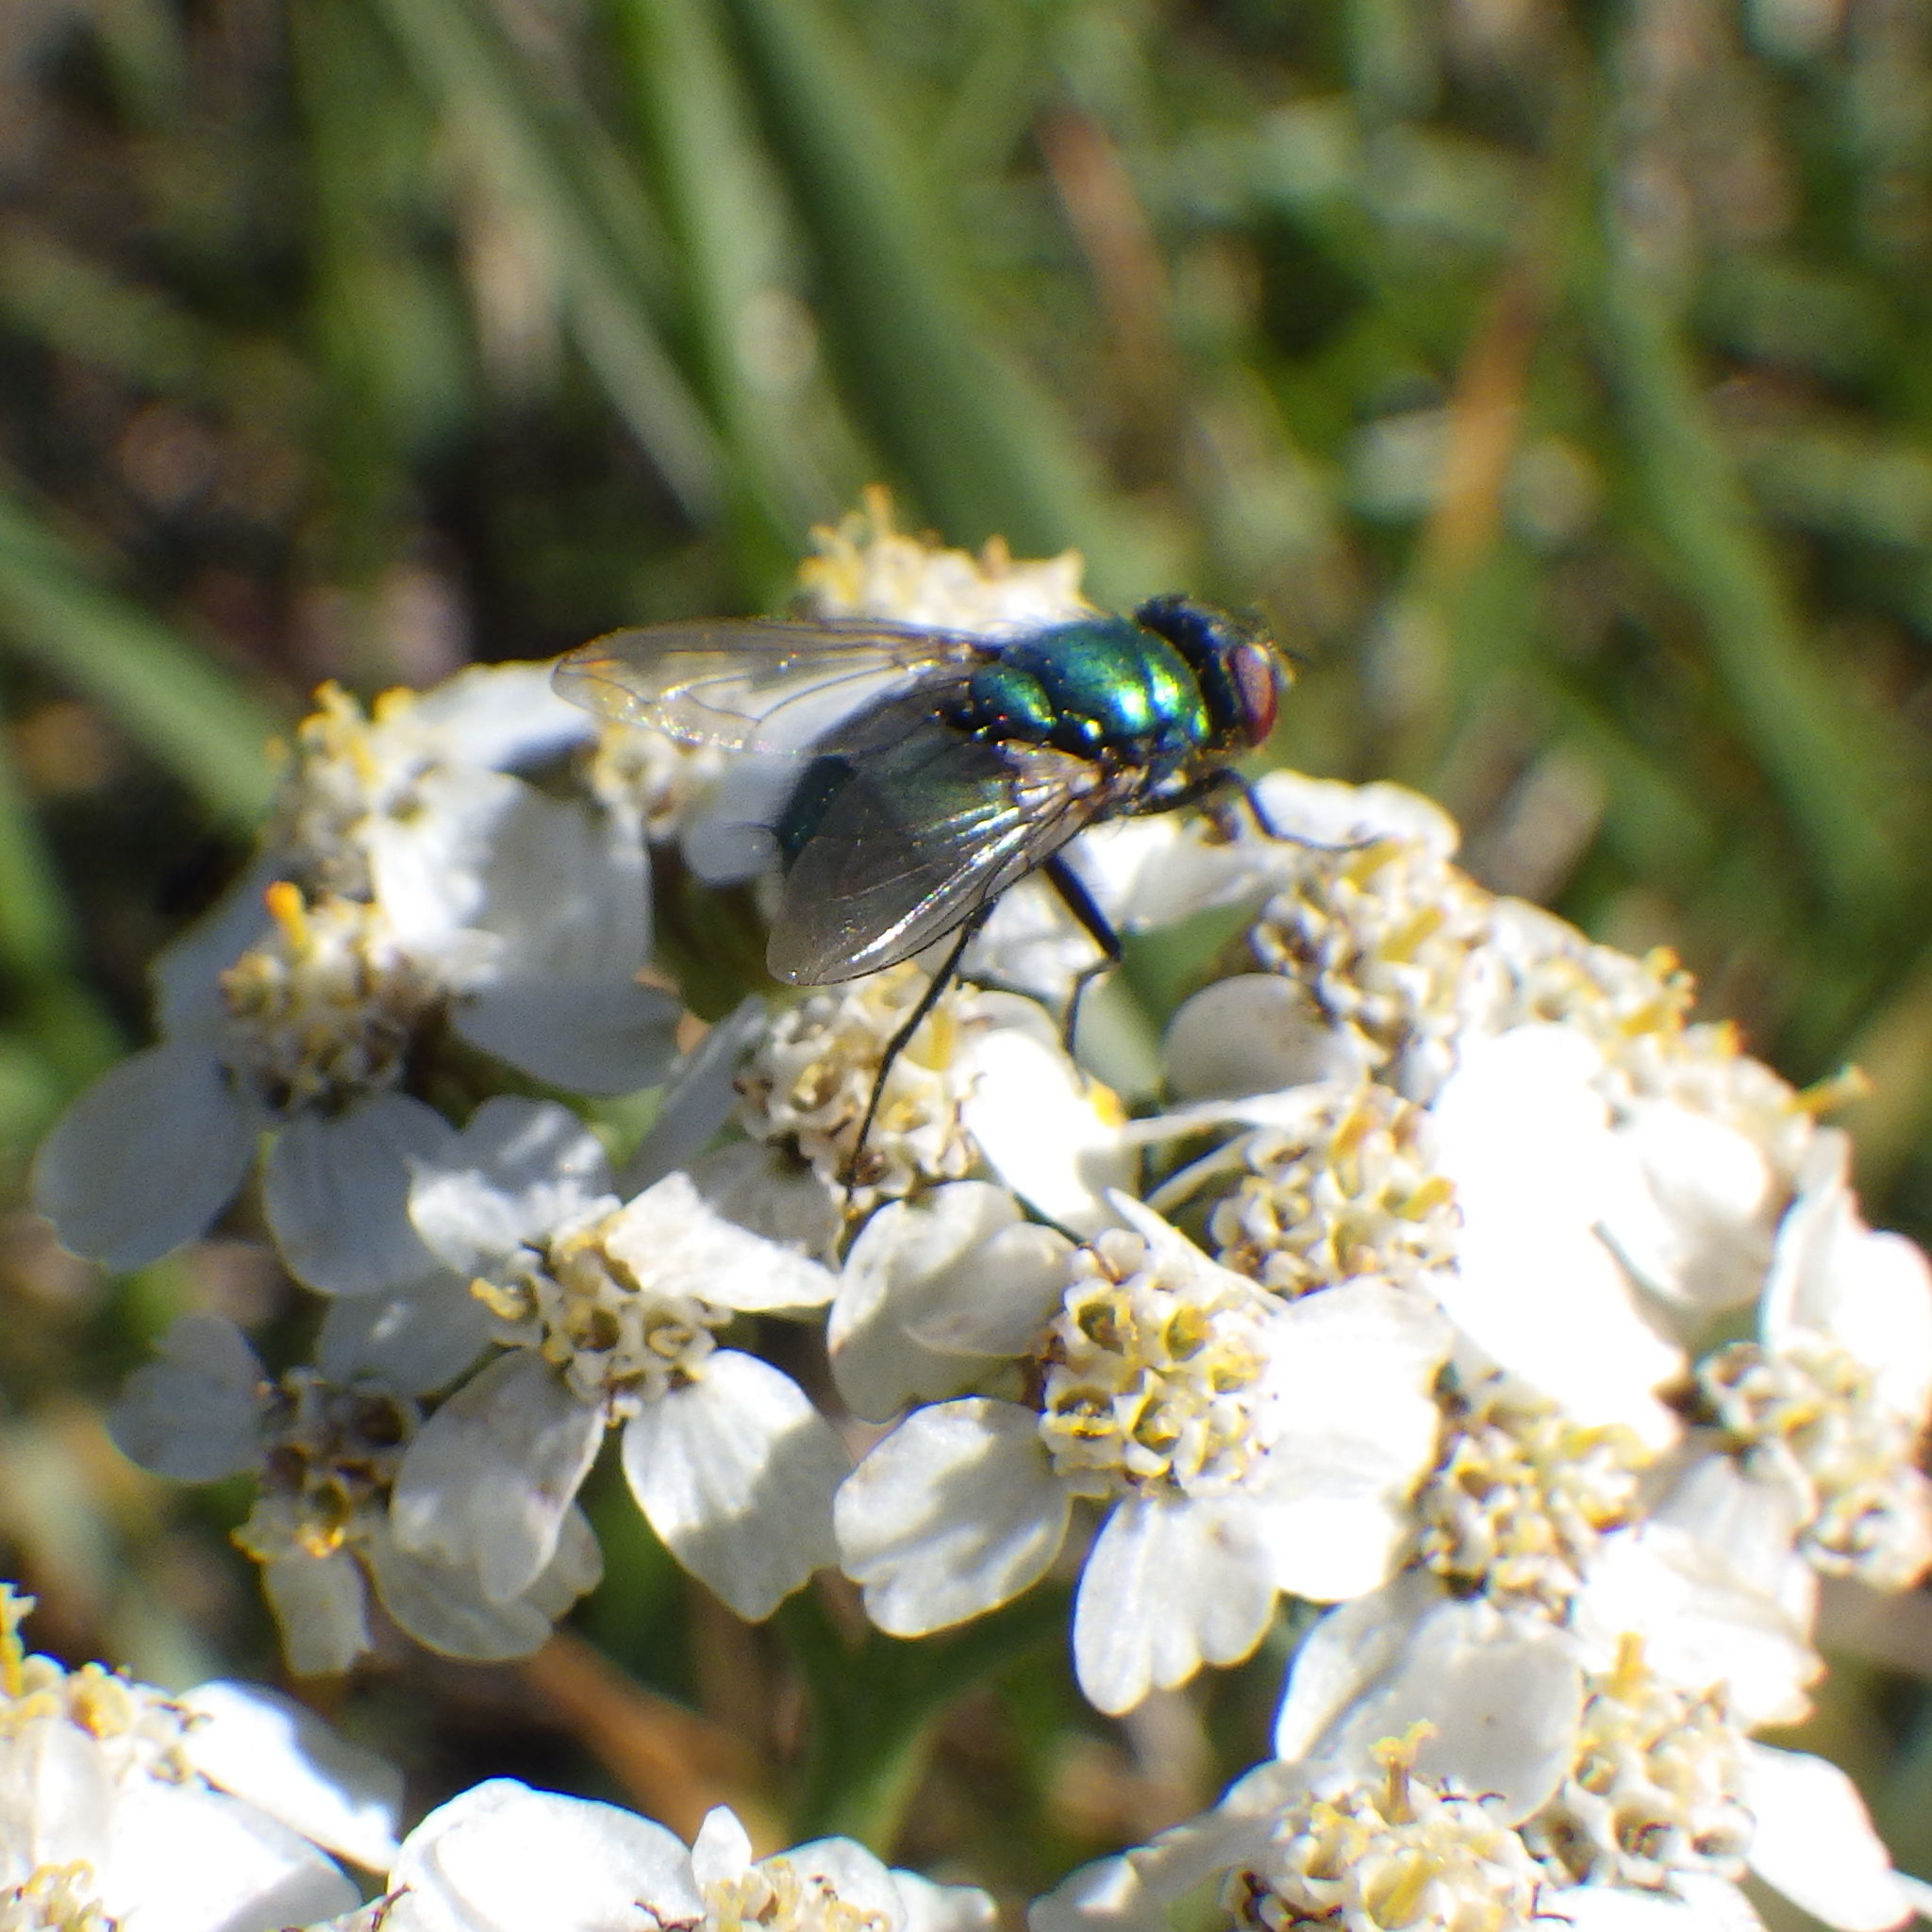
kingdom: Animalia
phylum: Arthropoda
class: Insecta
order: Diptera
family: Calliphoridae
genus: Lucilia
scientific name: Lucilia sericata
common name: Blow fly
